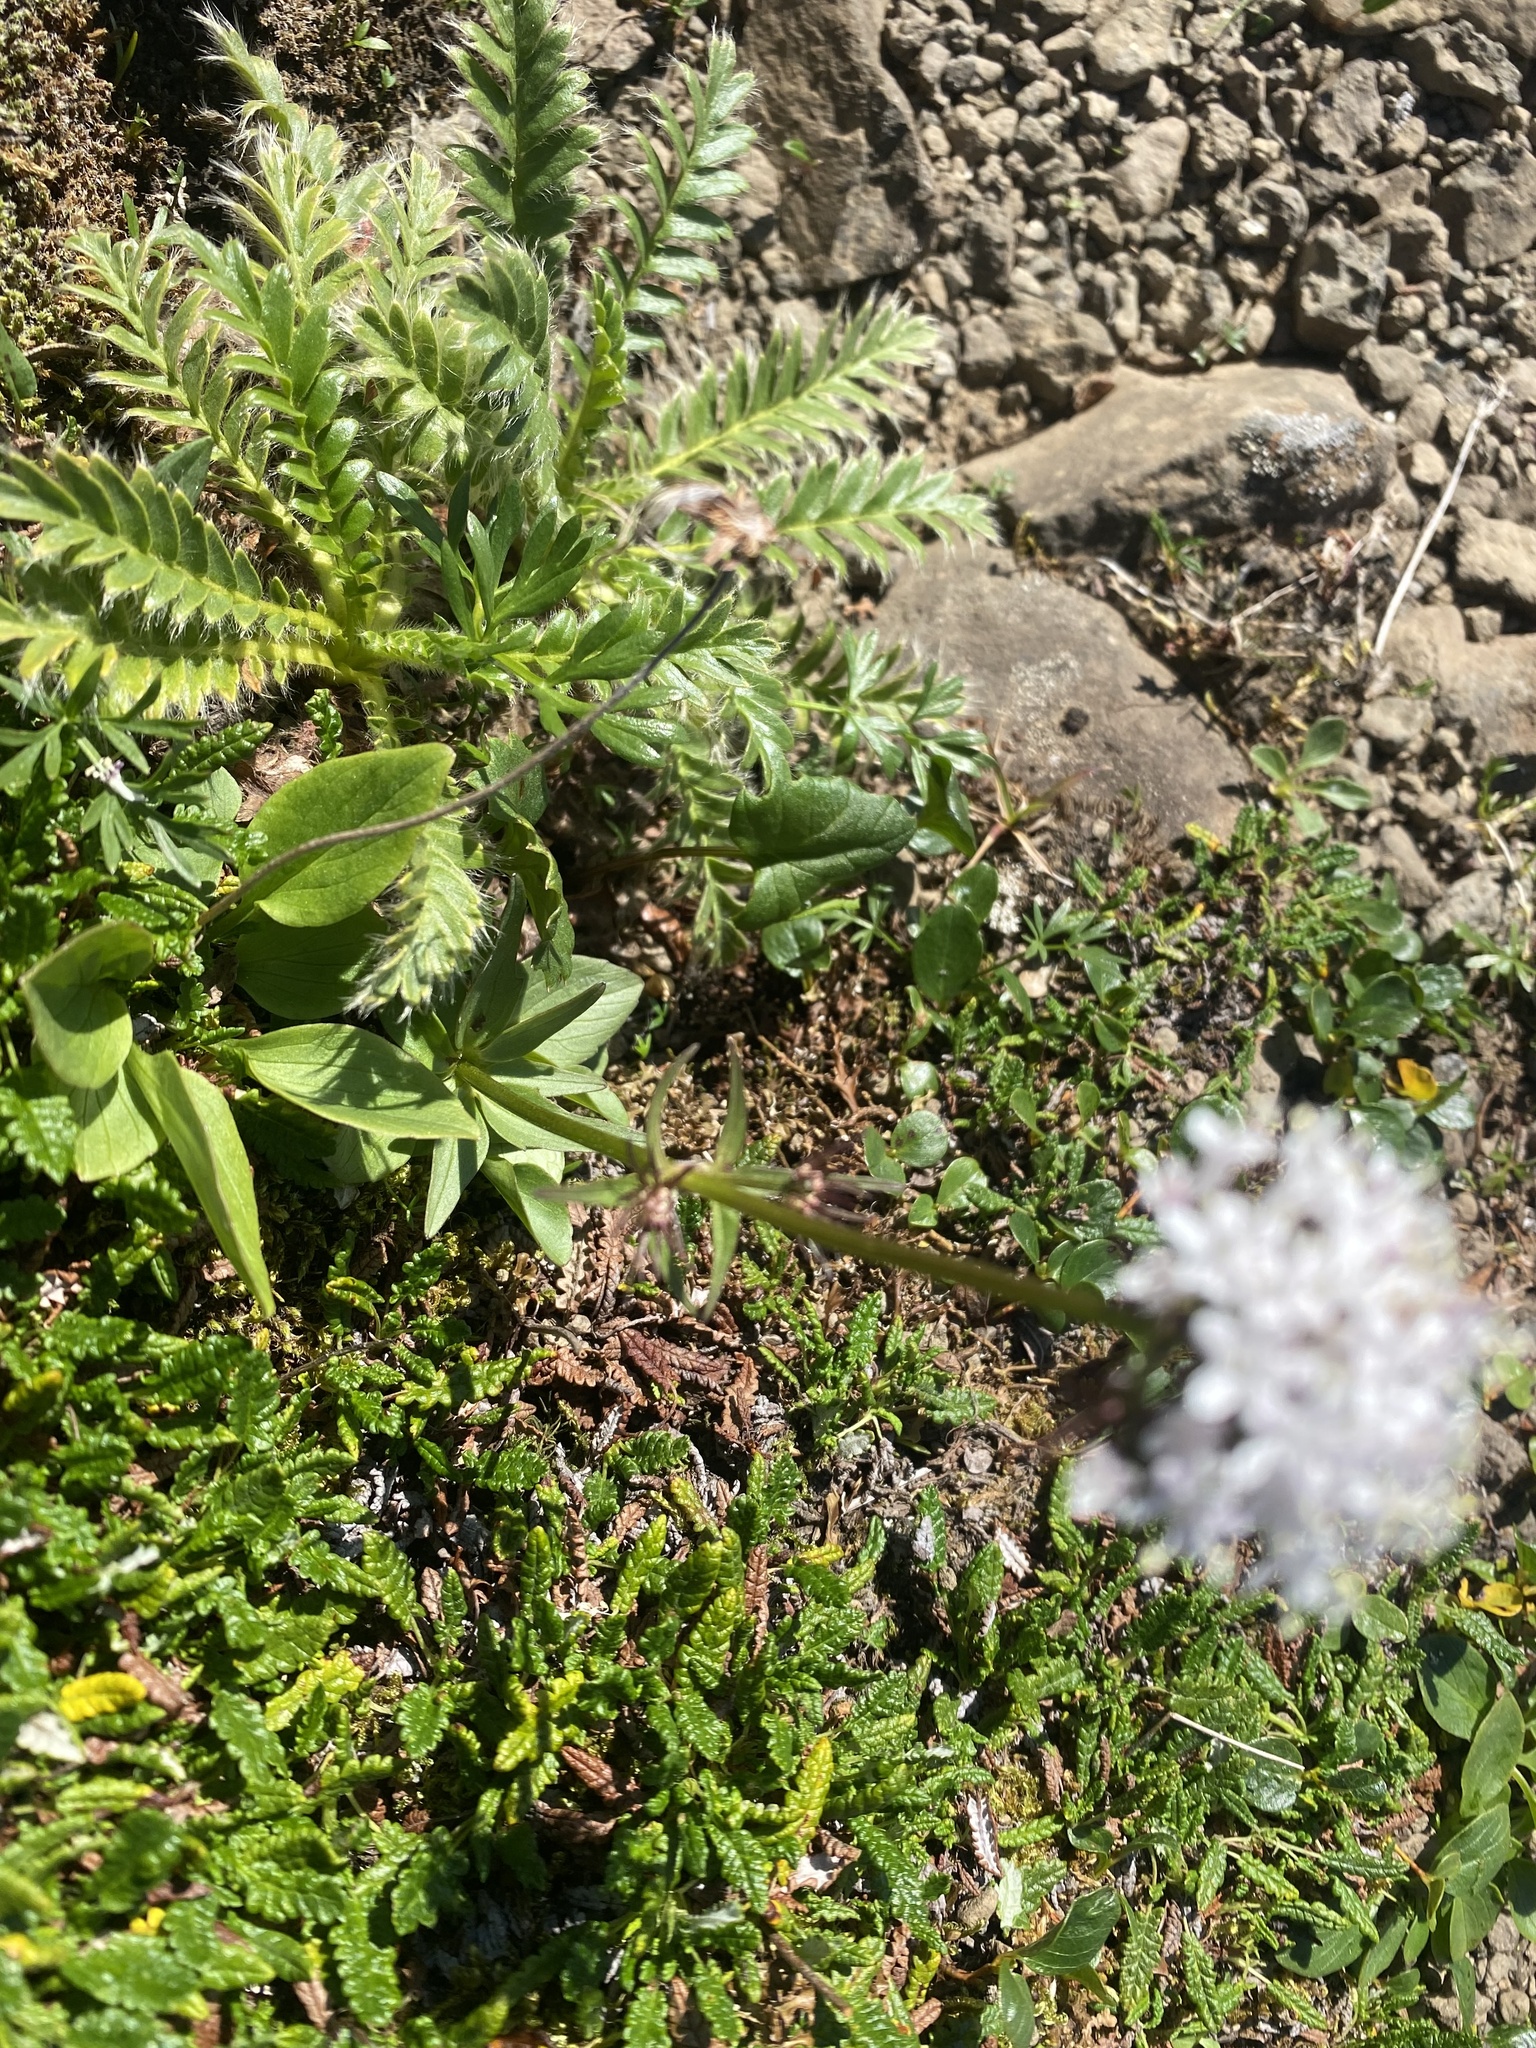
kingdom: Plantae
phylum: Tracheophyta
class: Magnoliopsida
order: Dipsacales
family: Caprifoliaceae
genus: Valeriana
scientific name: Valeriana capitata
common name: Capitate valerian
